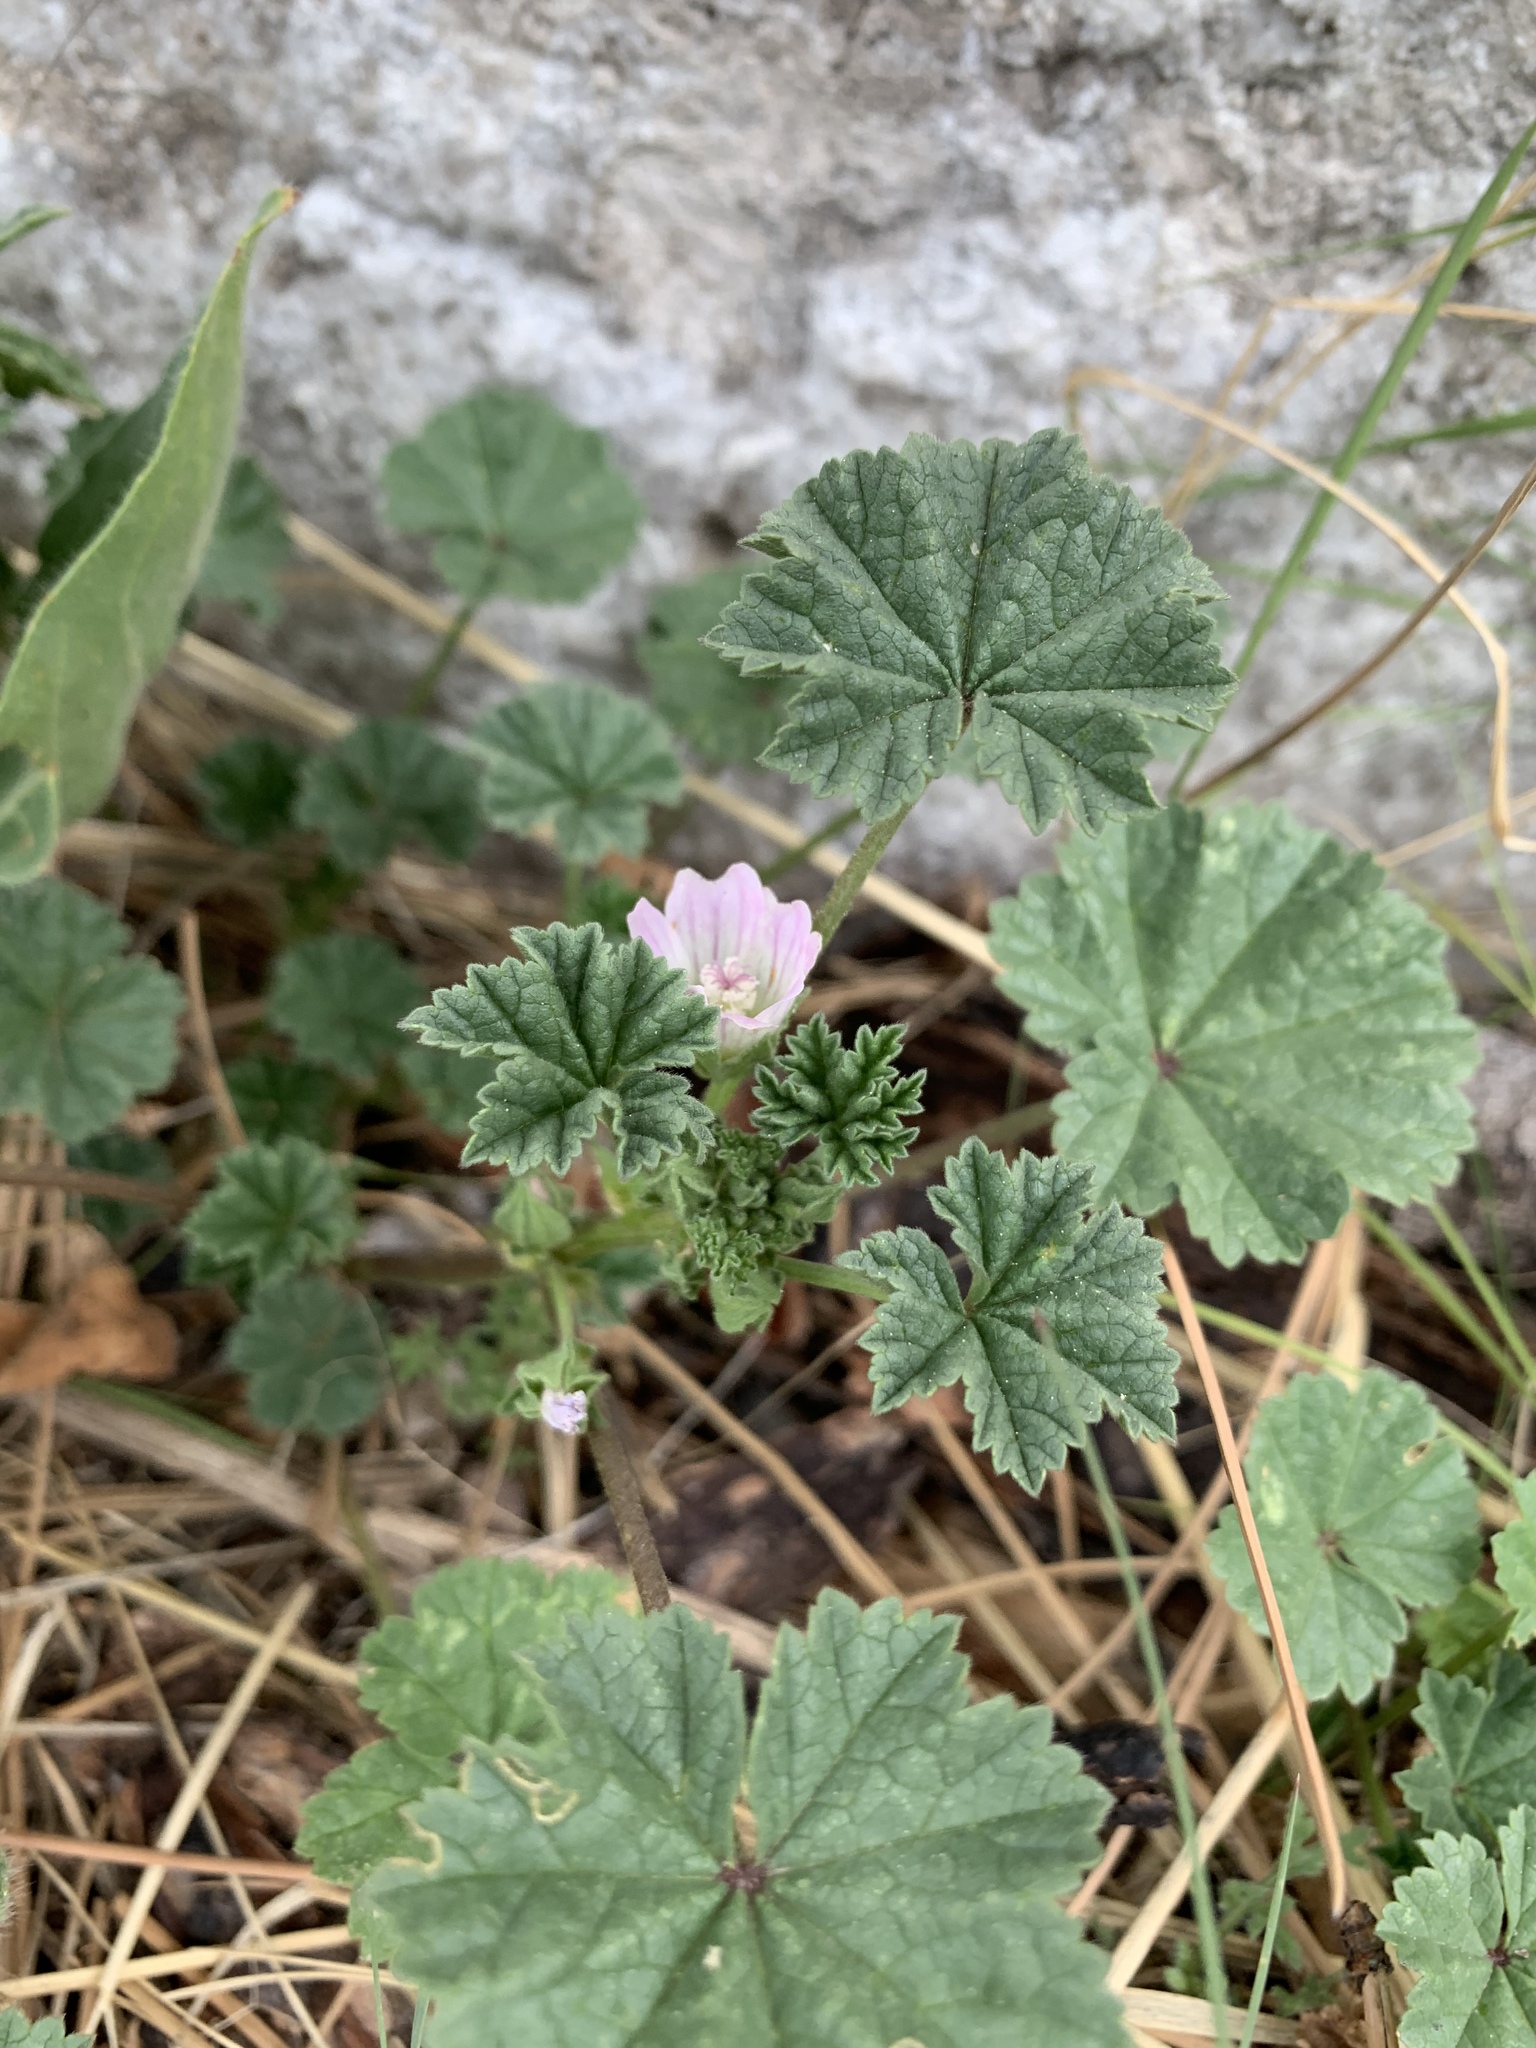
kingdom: Plantae
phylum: Tracheophyta
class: Magnoliopsida
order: Malvales
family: Malvaceae
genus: Malva
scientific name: Malva neglecta
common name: Common mallow
